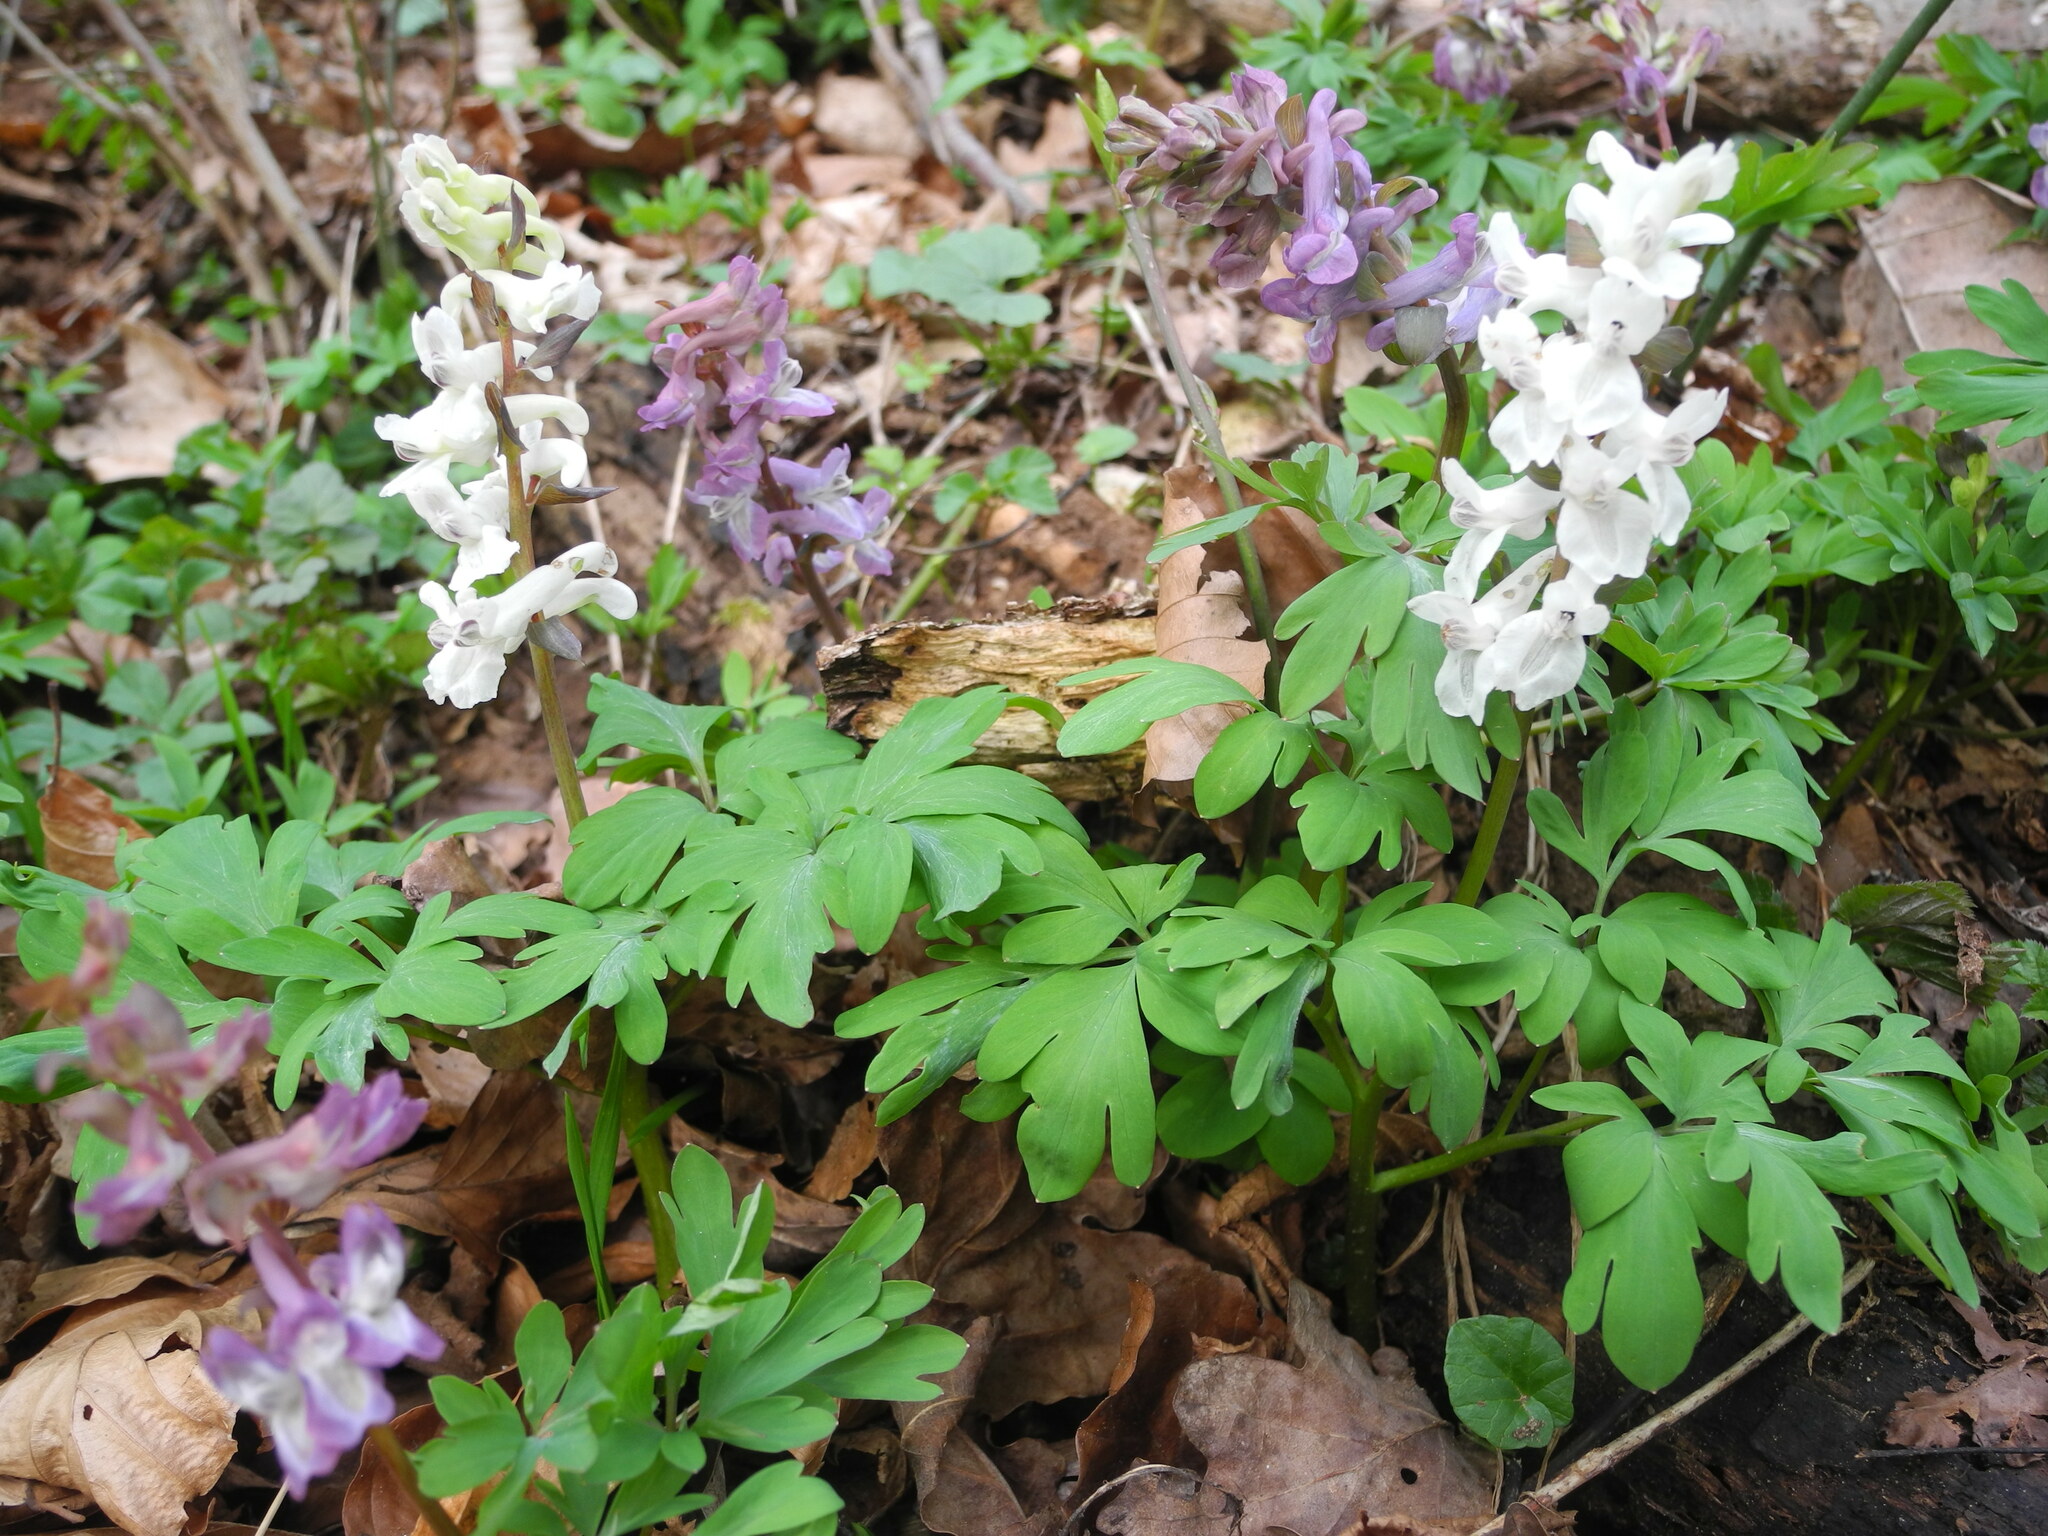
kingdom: Plantae
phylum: Tracheophyta
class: Magnoliopsida
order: Ranunculales
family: Papaveraceae
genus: Corydalis
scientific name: Corydalis cava
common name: Hollowroot
